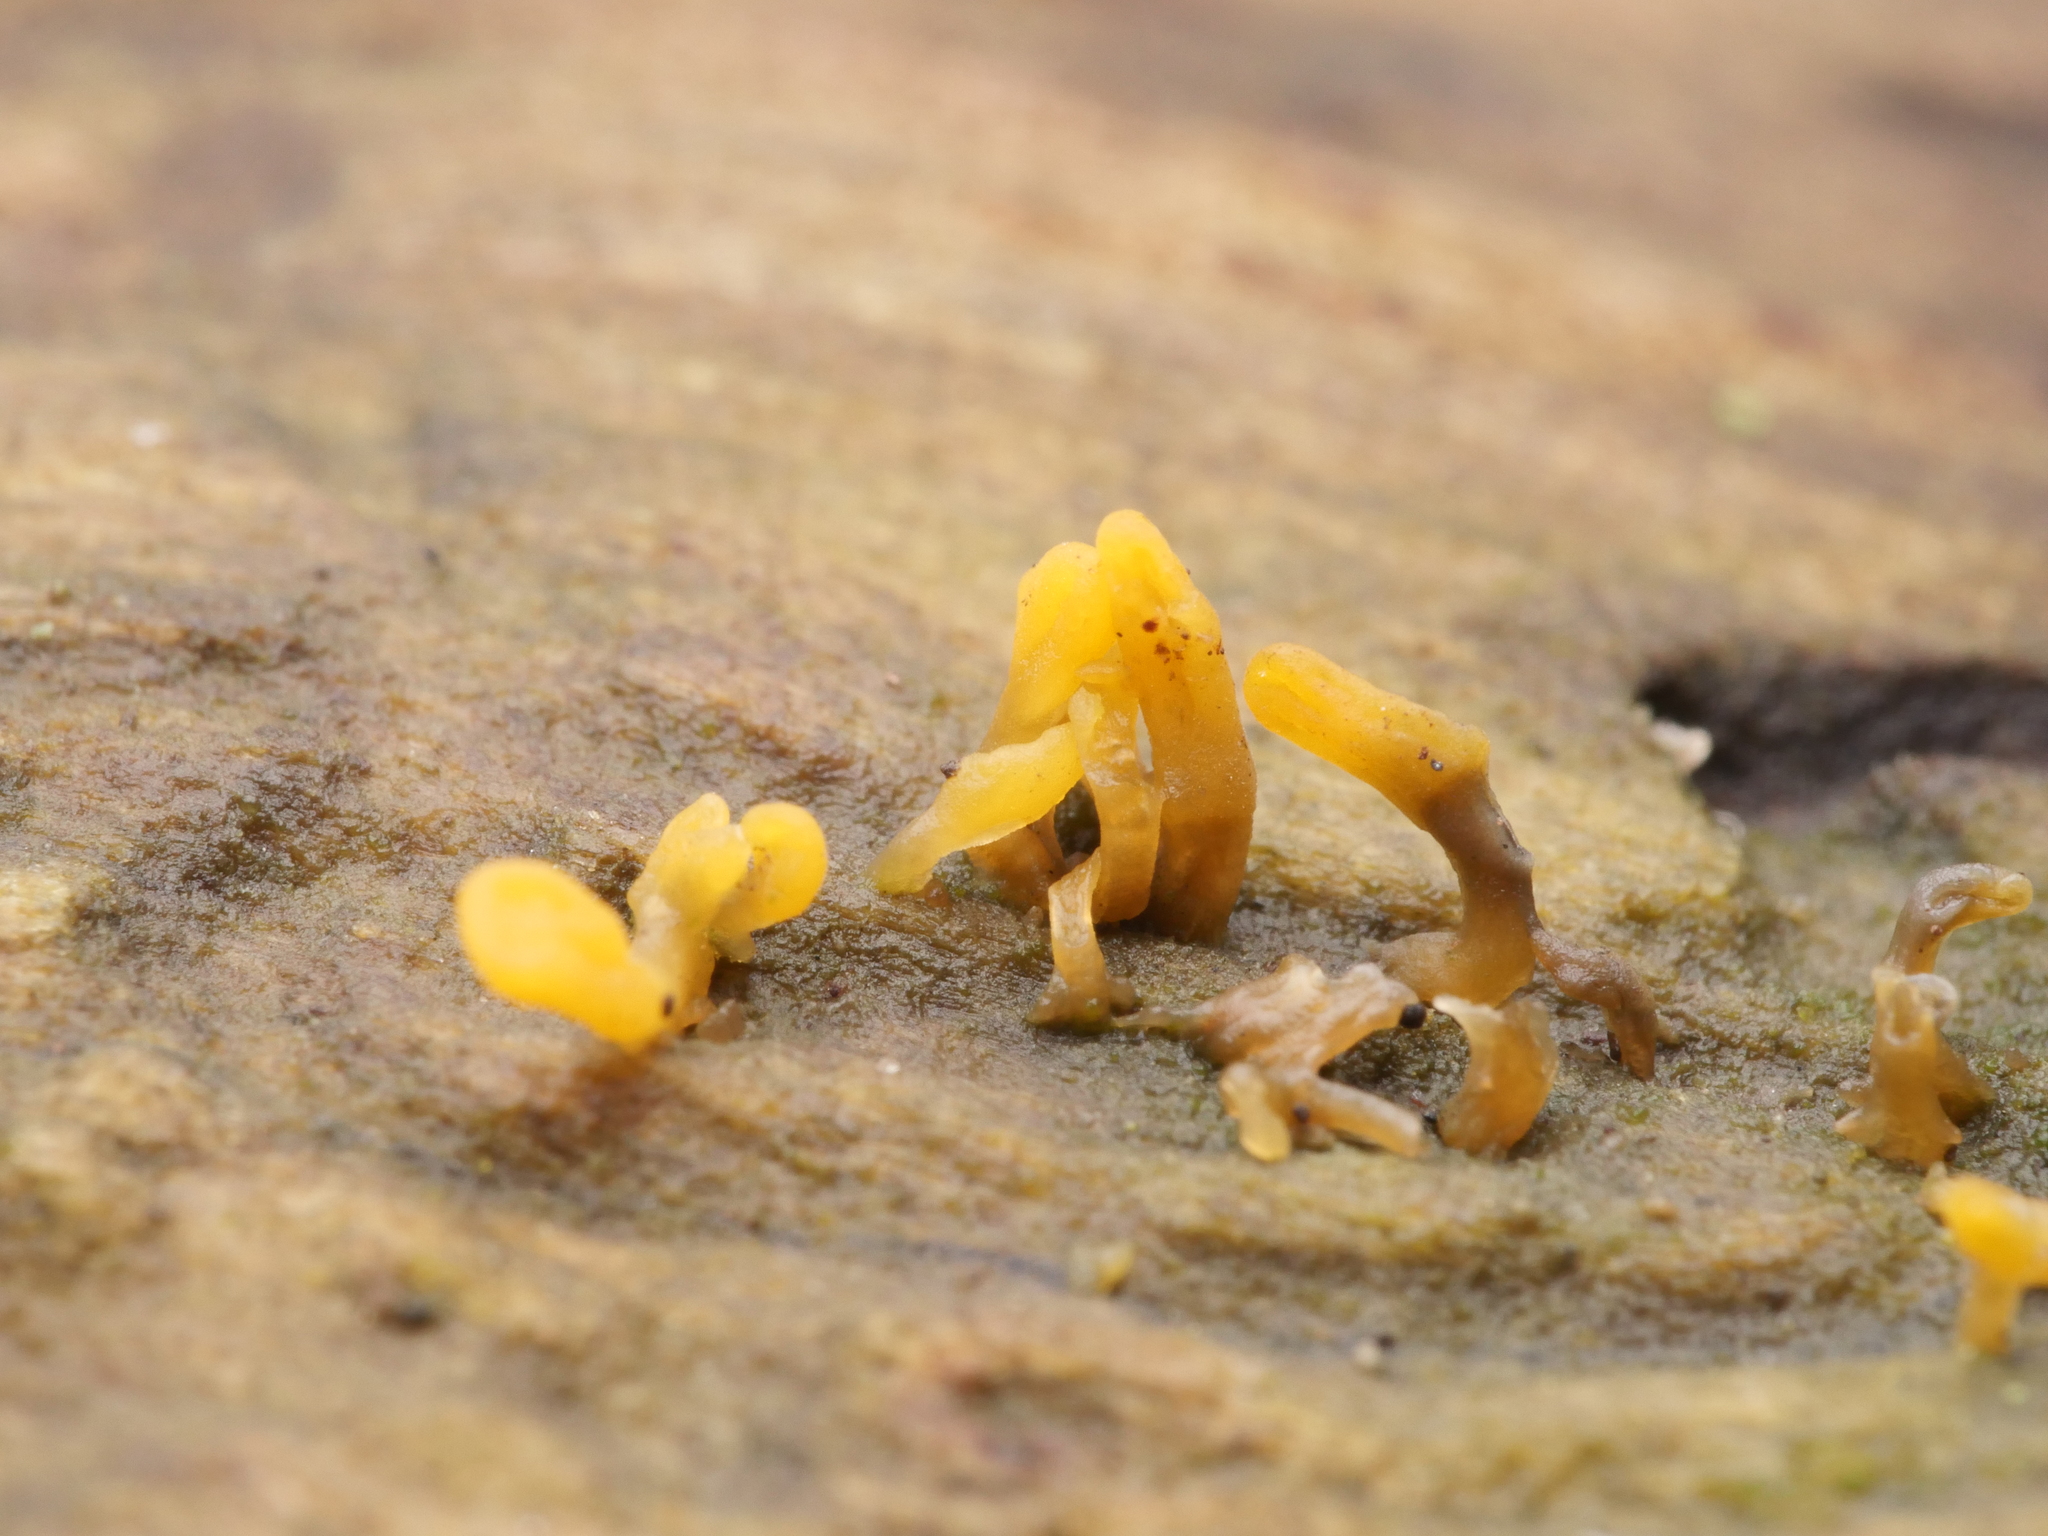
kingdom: Fungi
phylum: Basidiomycota
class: Dacrymycetes
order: Dacrymycetales
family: Dacrymycetaceae
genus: Calocera
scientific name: Calocera cornea
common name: Small stagshorn
